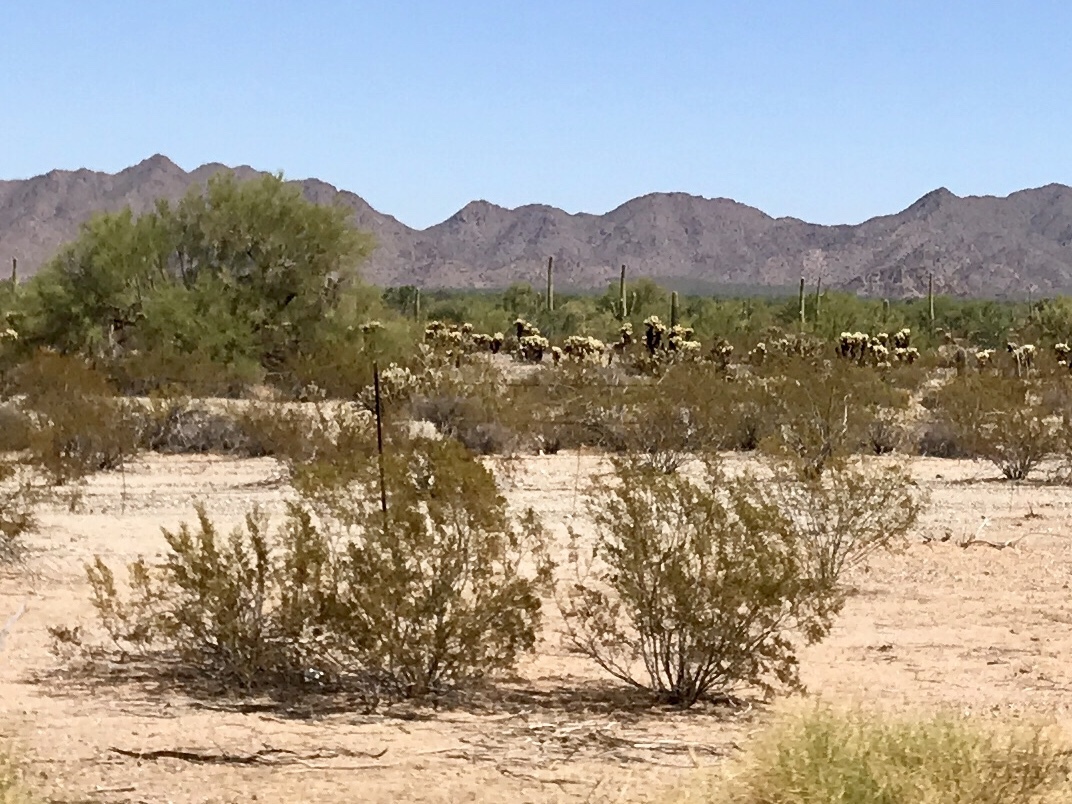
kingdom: Plantae
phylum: Tracheophyta
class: Magnoliopsida
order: Zygophyllales
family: Zygophyllaceae
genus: Larrea
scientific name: Larrea tridentata
